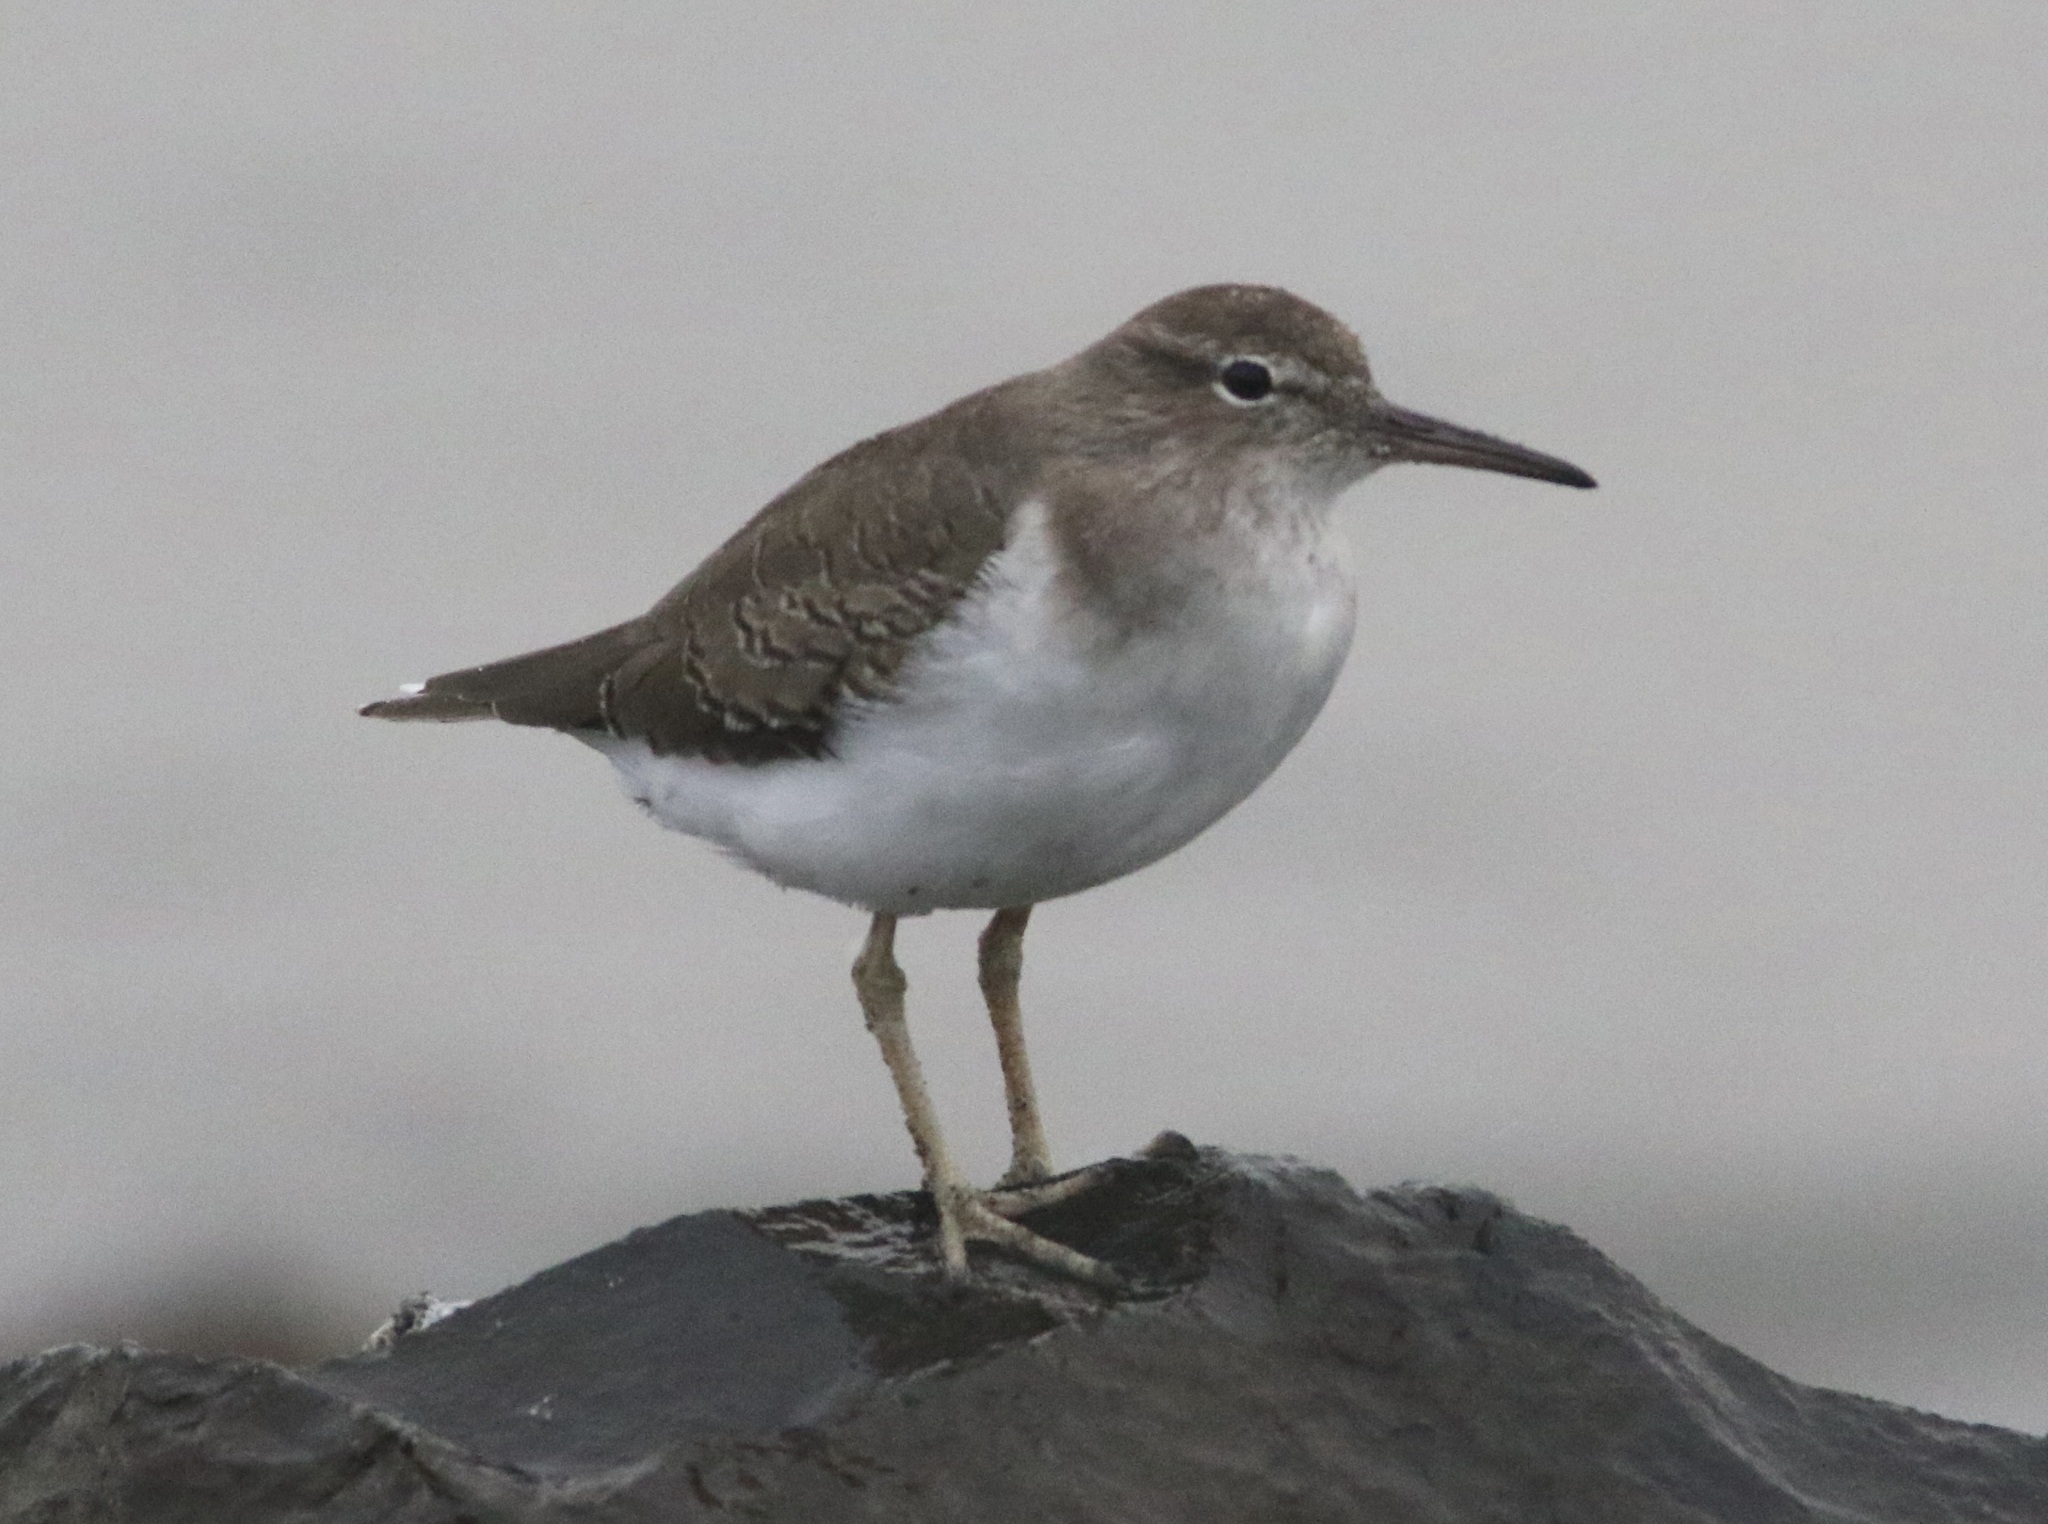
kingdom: Animalia
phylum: Chordata
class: Aves
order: Charadriiformes
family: Scolopacidae
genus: Actitis
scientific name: Actitis macularius
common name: Spotted sandpiper
